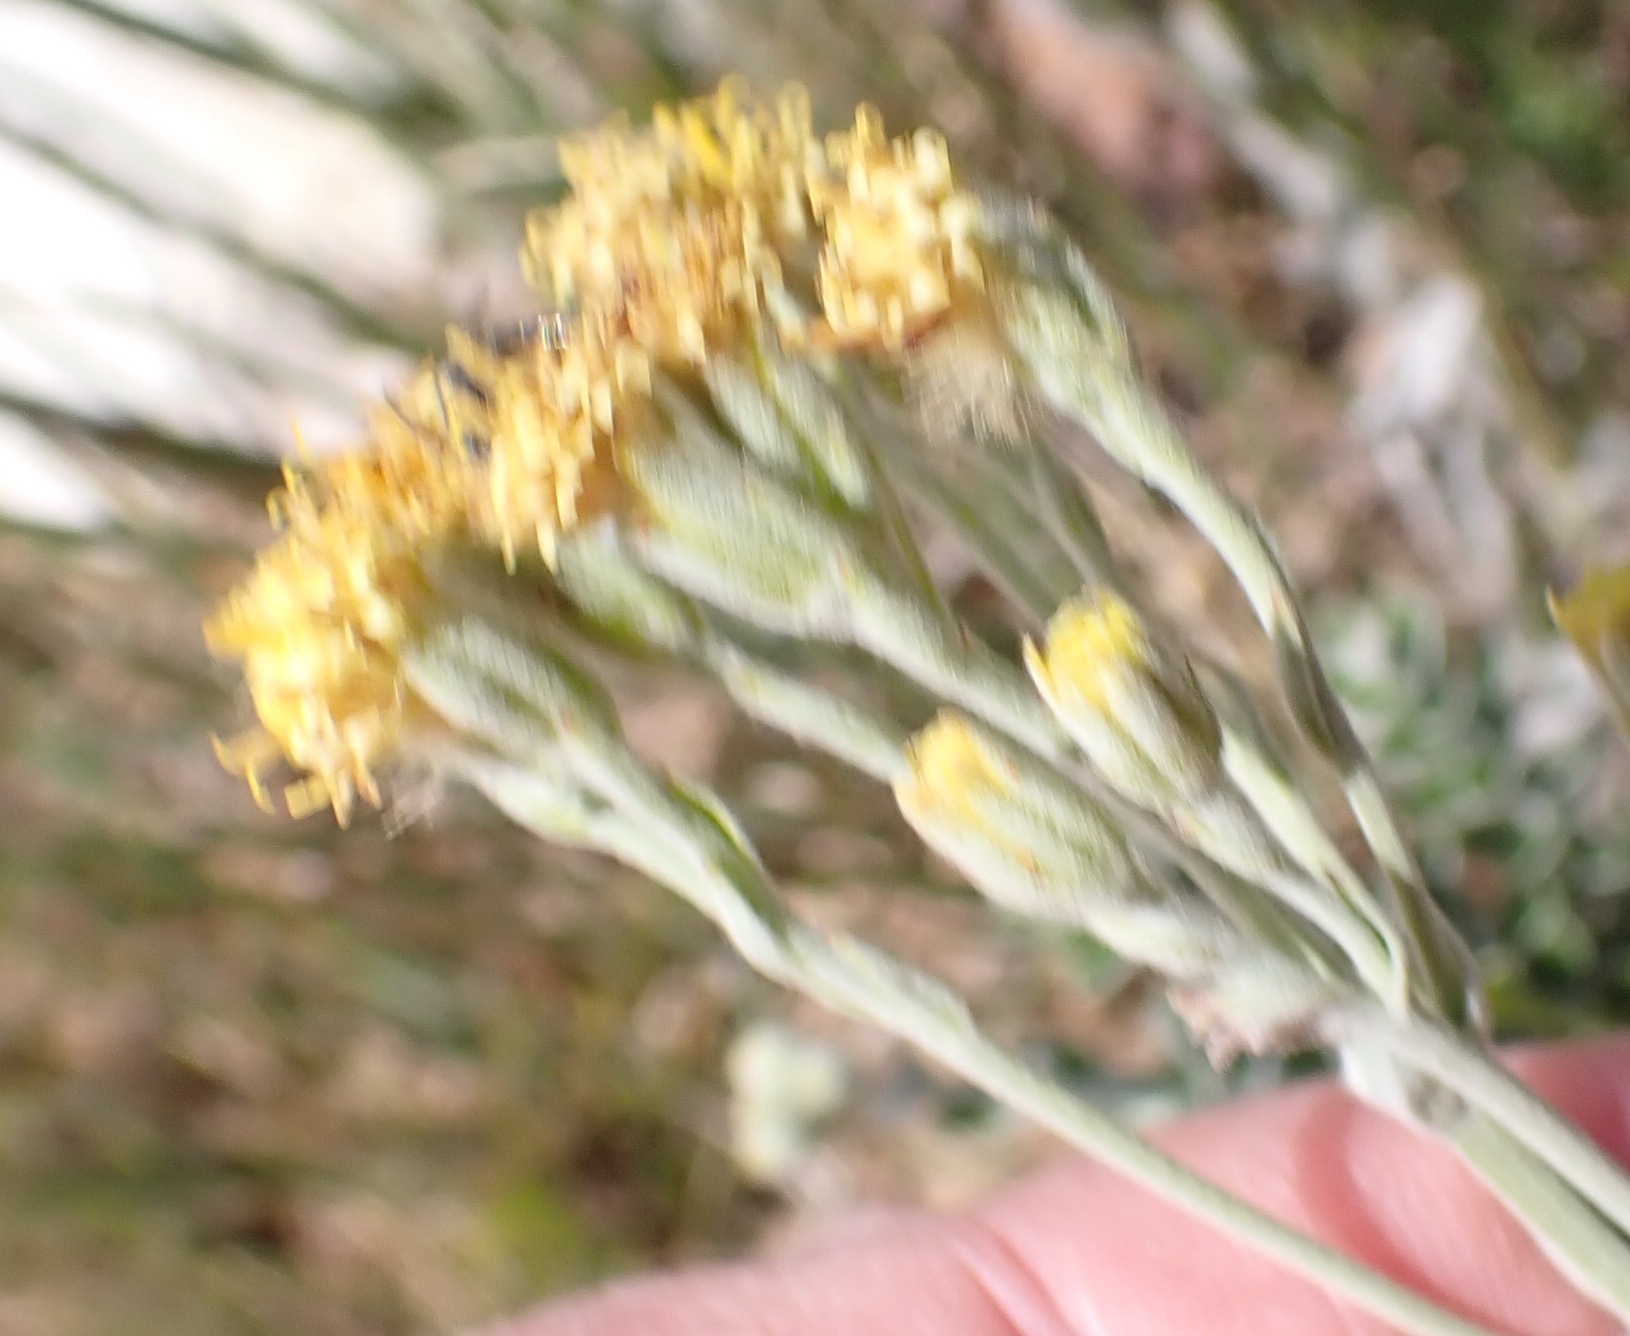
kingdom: Plantae
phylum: Tracheophyta
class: Magnoliopsida
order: Asterales
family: Asteraceae
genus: Senecio
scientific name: Senecio pauciflosculosus
